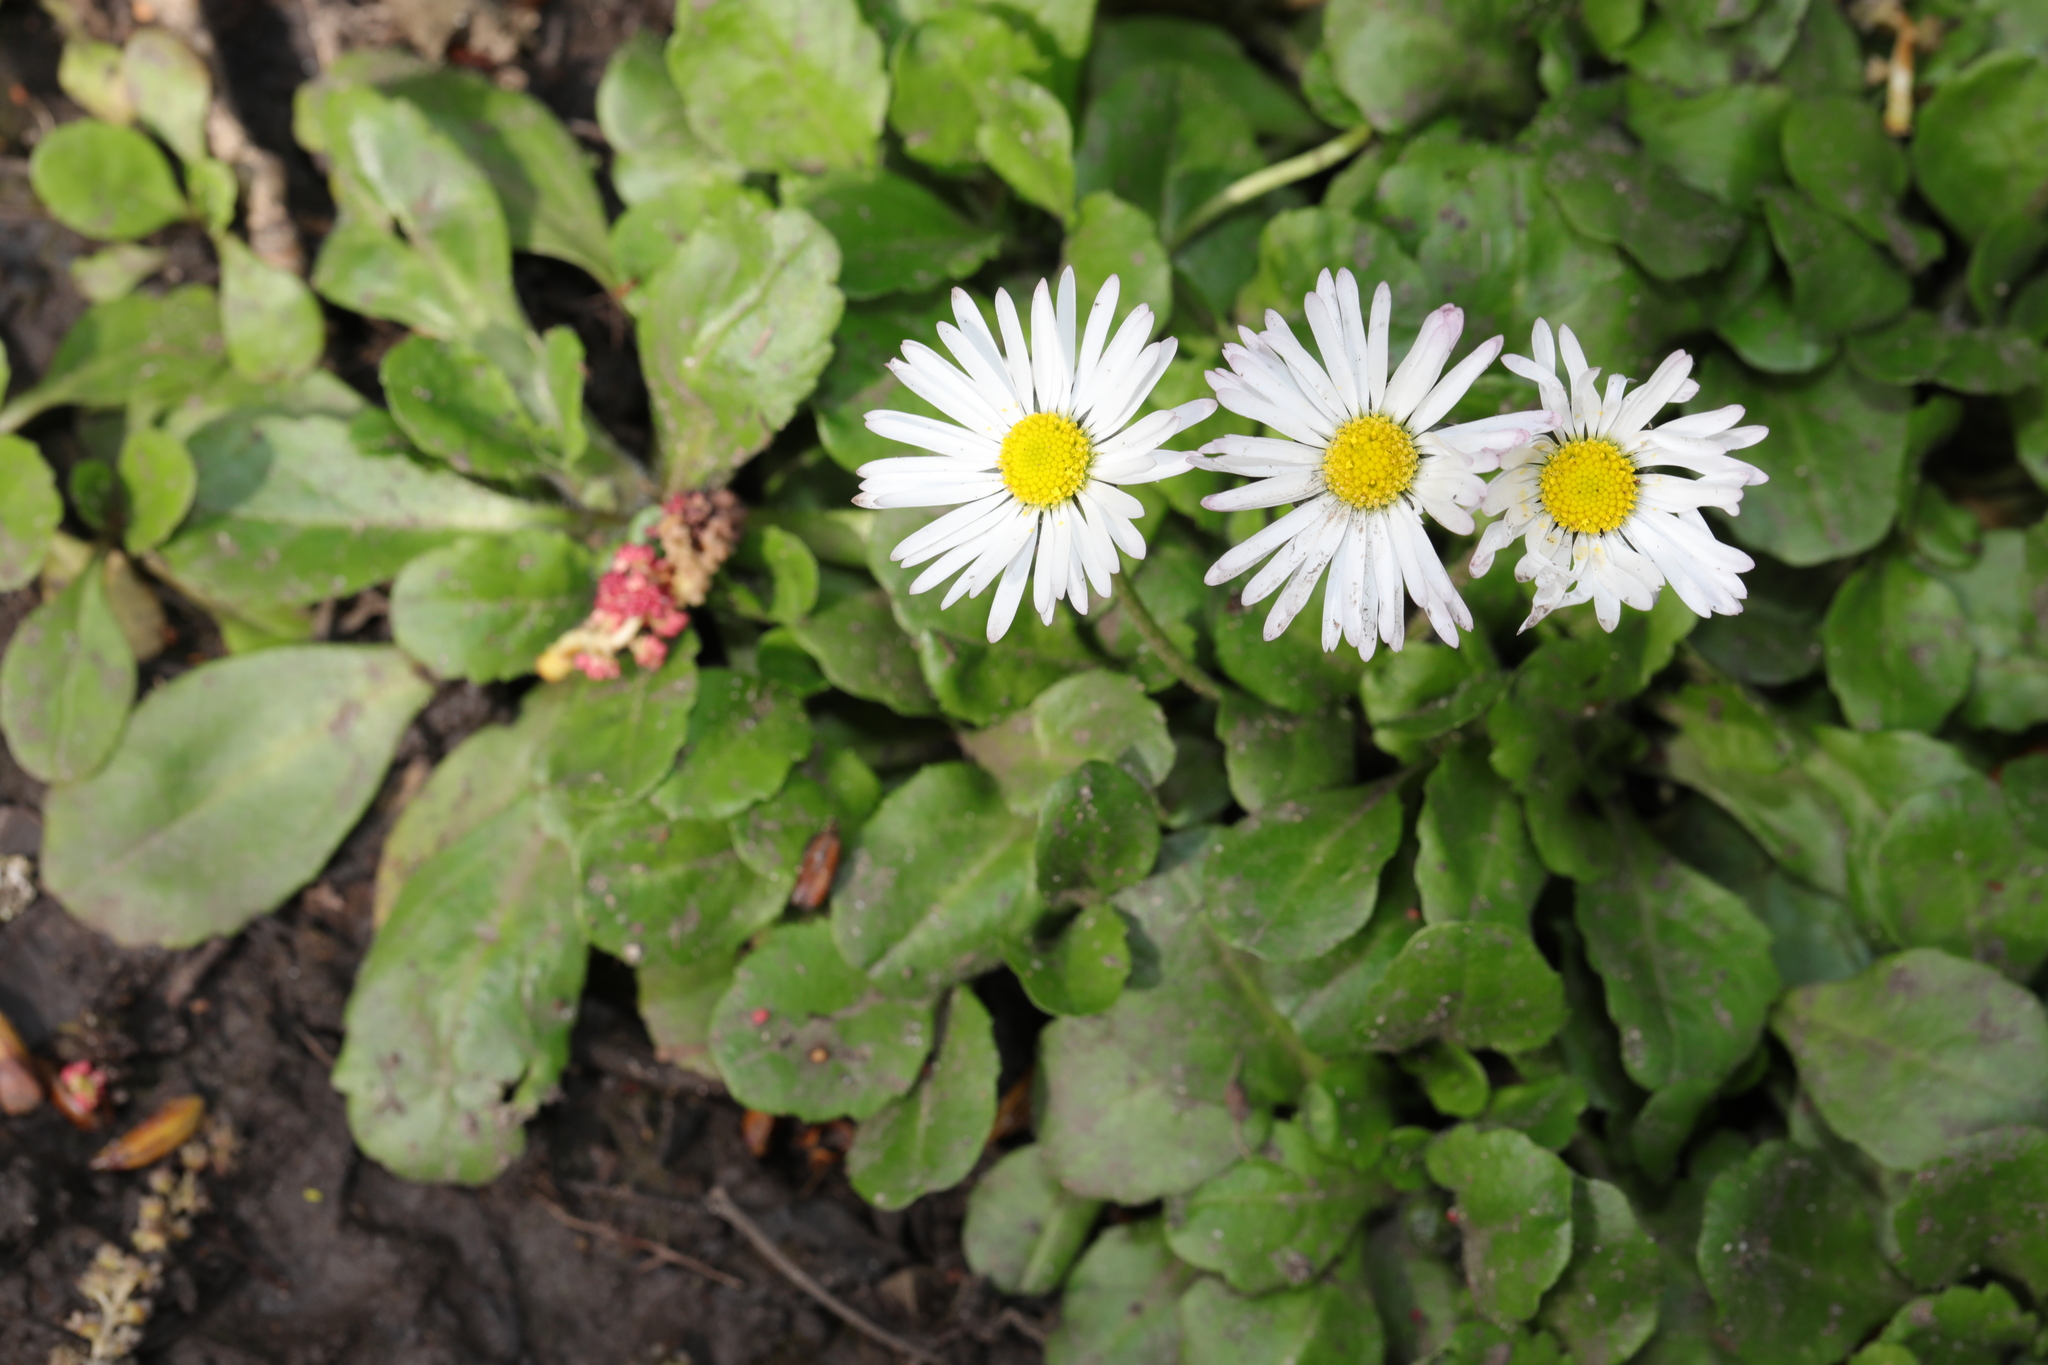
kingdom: Plantae
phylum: Tracheophyta
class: Magnoliopsida
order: Asterales
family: Asteraceae
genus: Bellis
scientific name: Bellis perennis
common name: Lawndaisy
